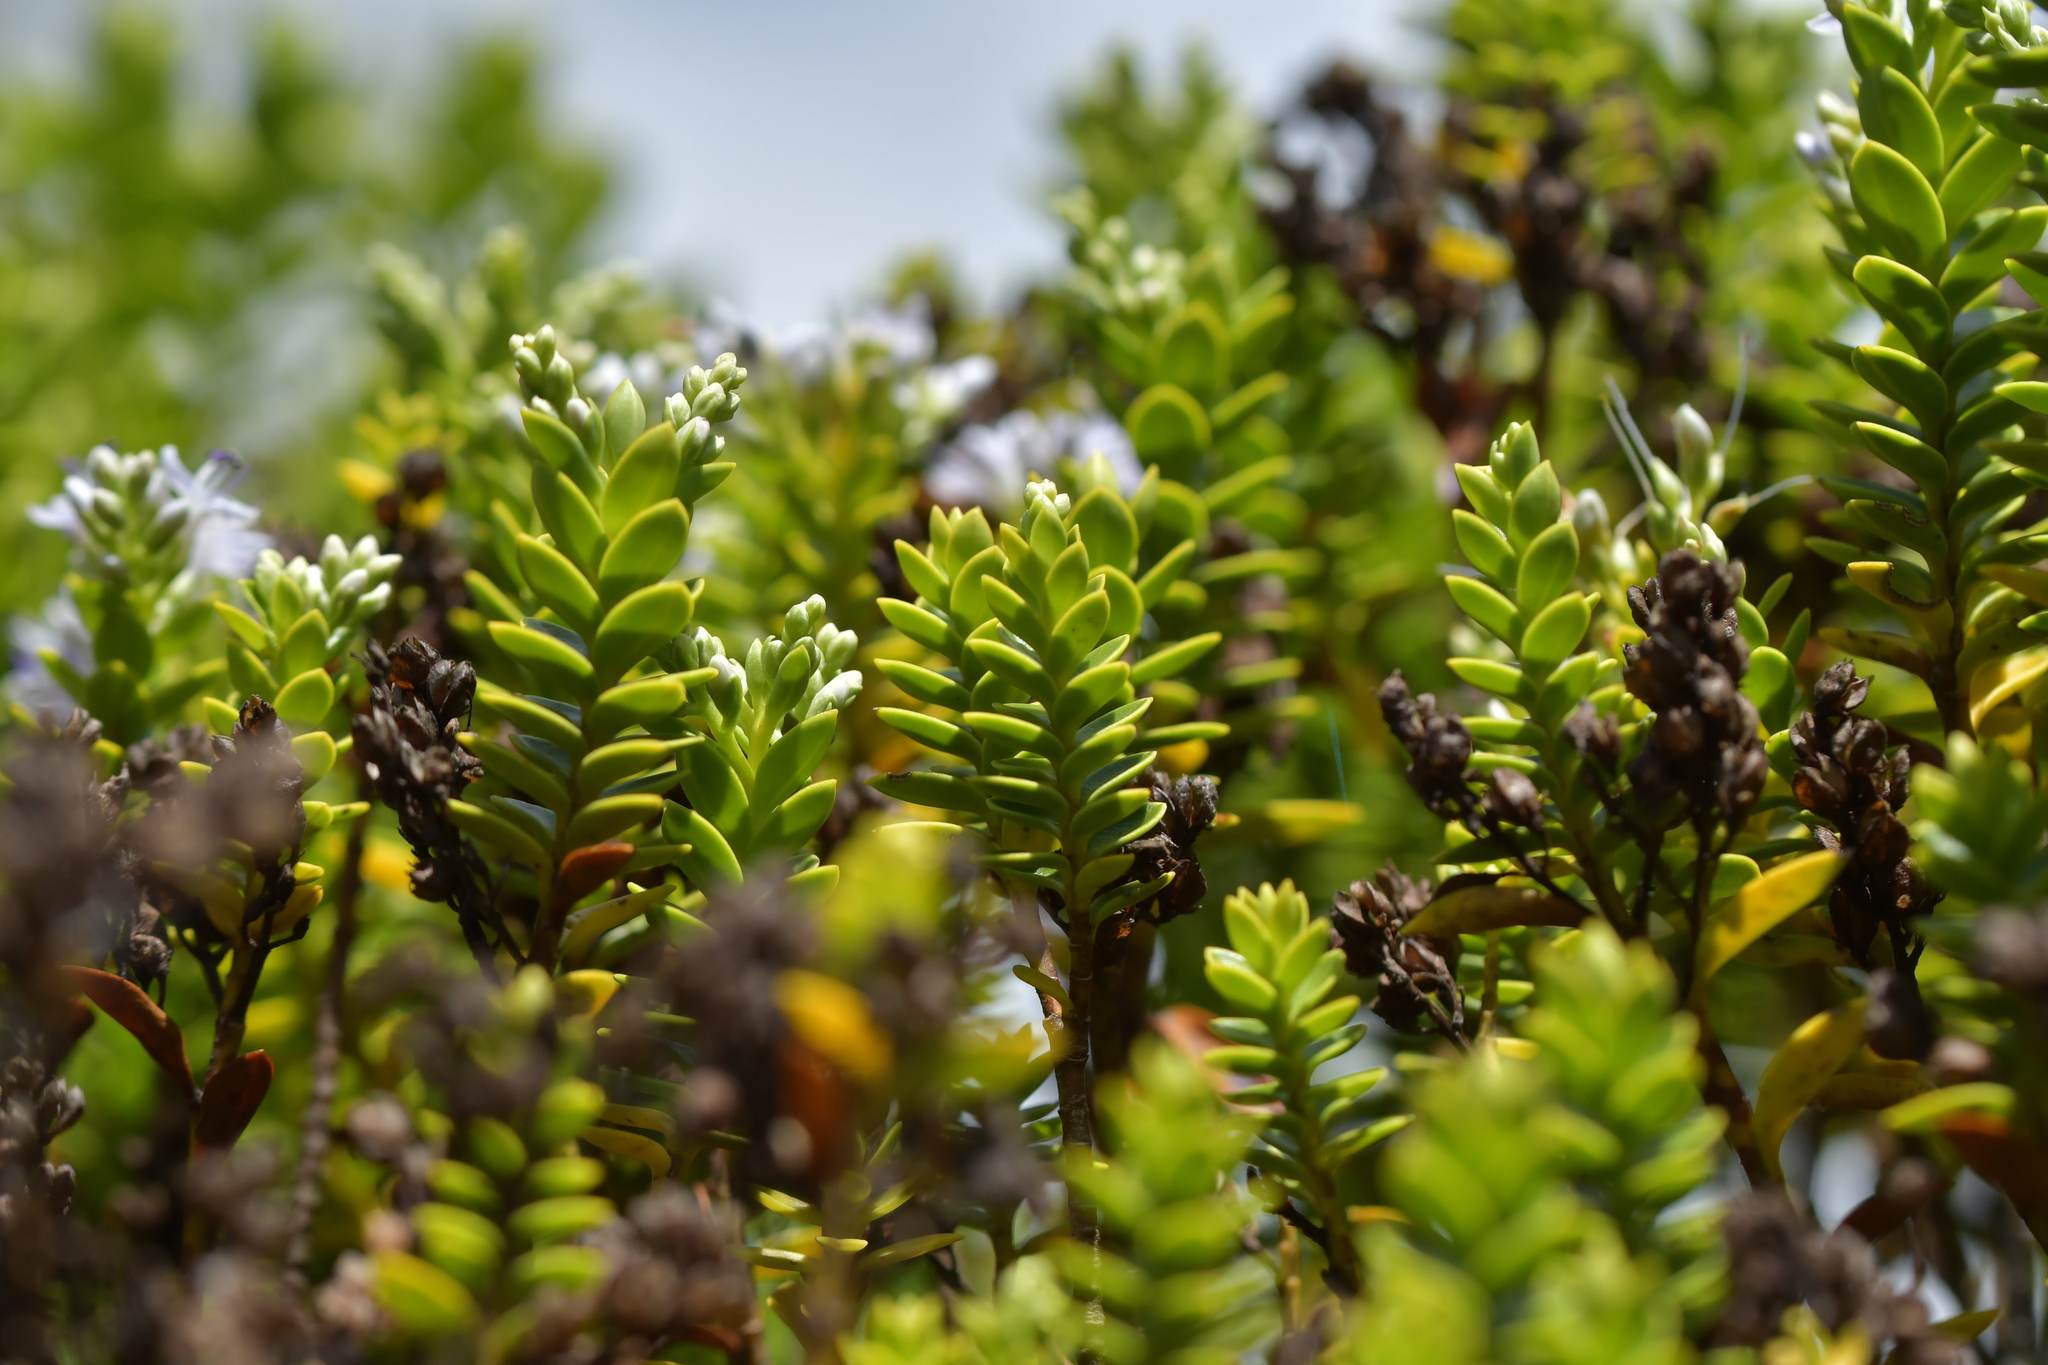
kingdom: Plantae
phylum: Tracheophyta
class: Magnoliopsida
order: Lamiales
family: Plantaginaceae
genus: Veronica
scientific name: Veronica odora
